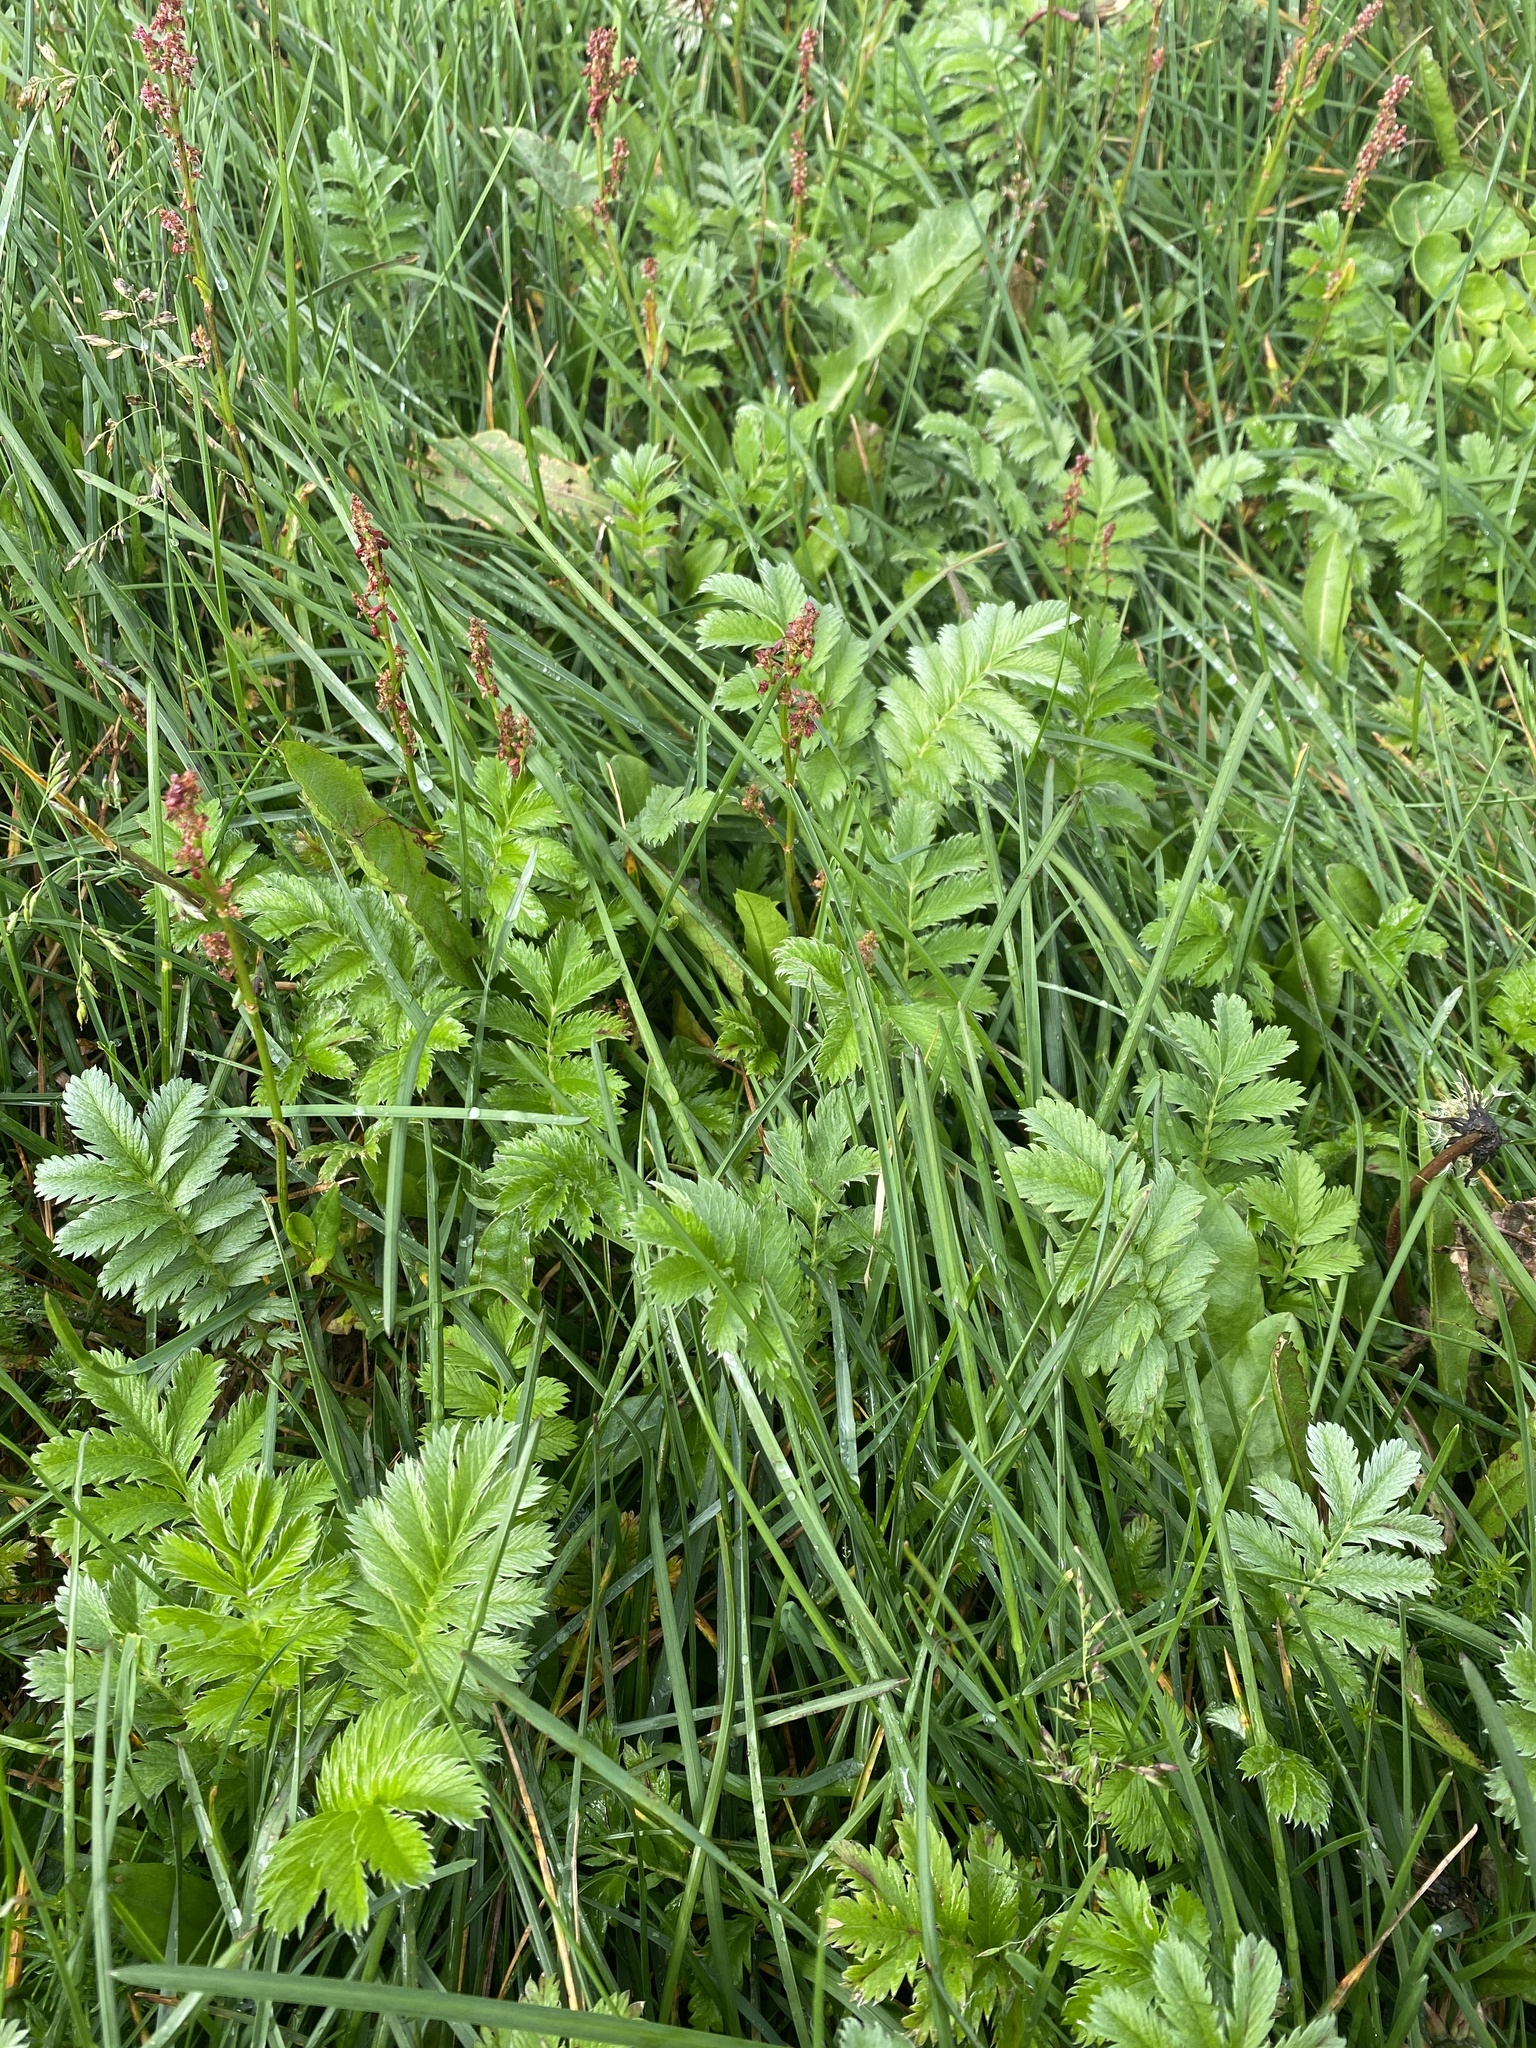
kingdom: Plantae
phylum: Tracheophyta
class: Magnoliopsida
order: Rosales
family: Rosaceae
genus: Argentina
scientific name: Argentina anserina
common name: Common silverweed
